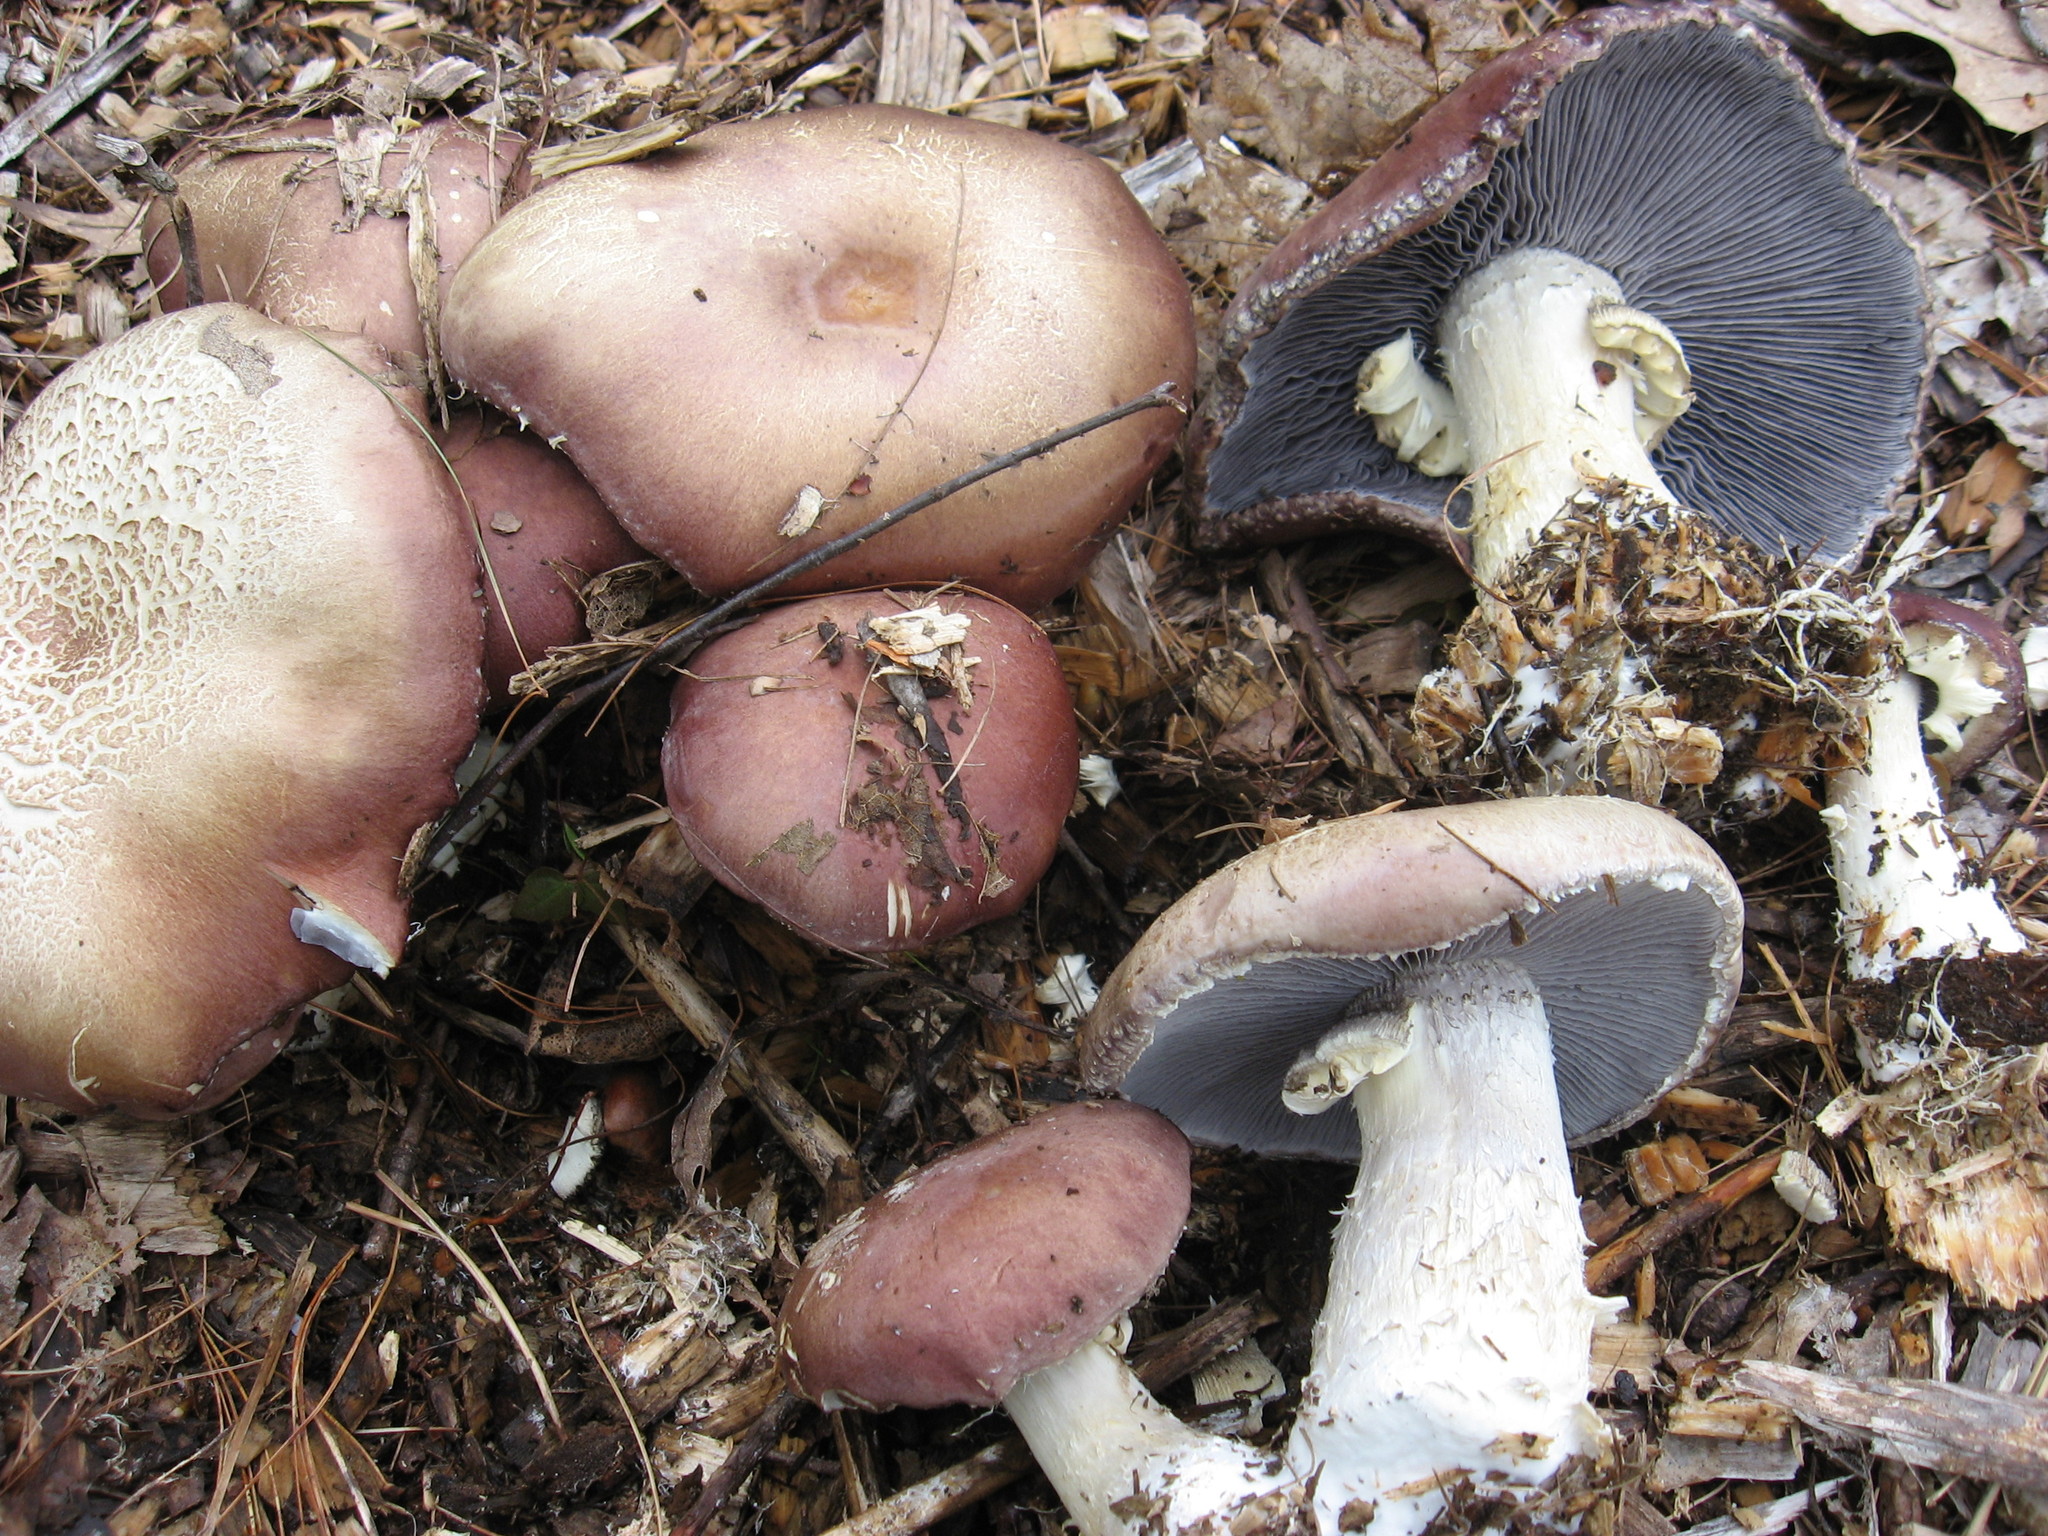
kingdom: Fungi
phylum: Basidiomycota
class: Agaricomycetes
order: Agaricales
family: Strophariaceae
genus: Stropharia
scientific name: Stropharia rugosoannulata
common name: Wine roundhead
